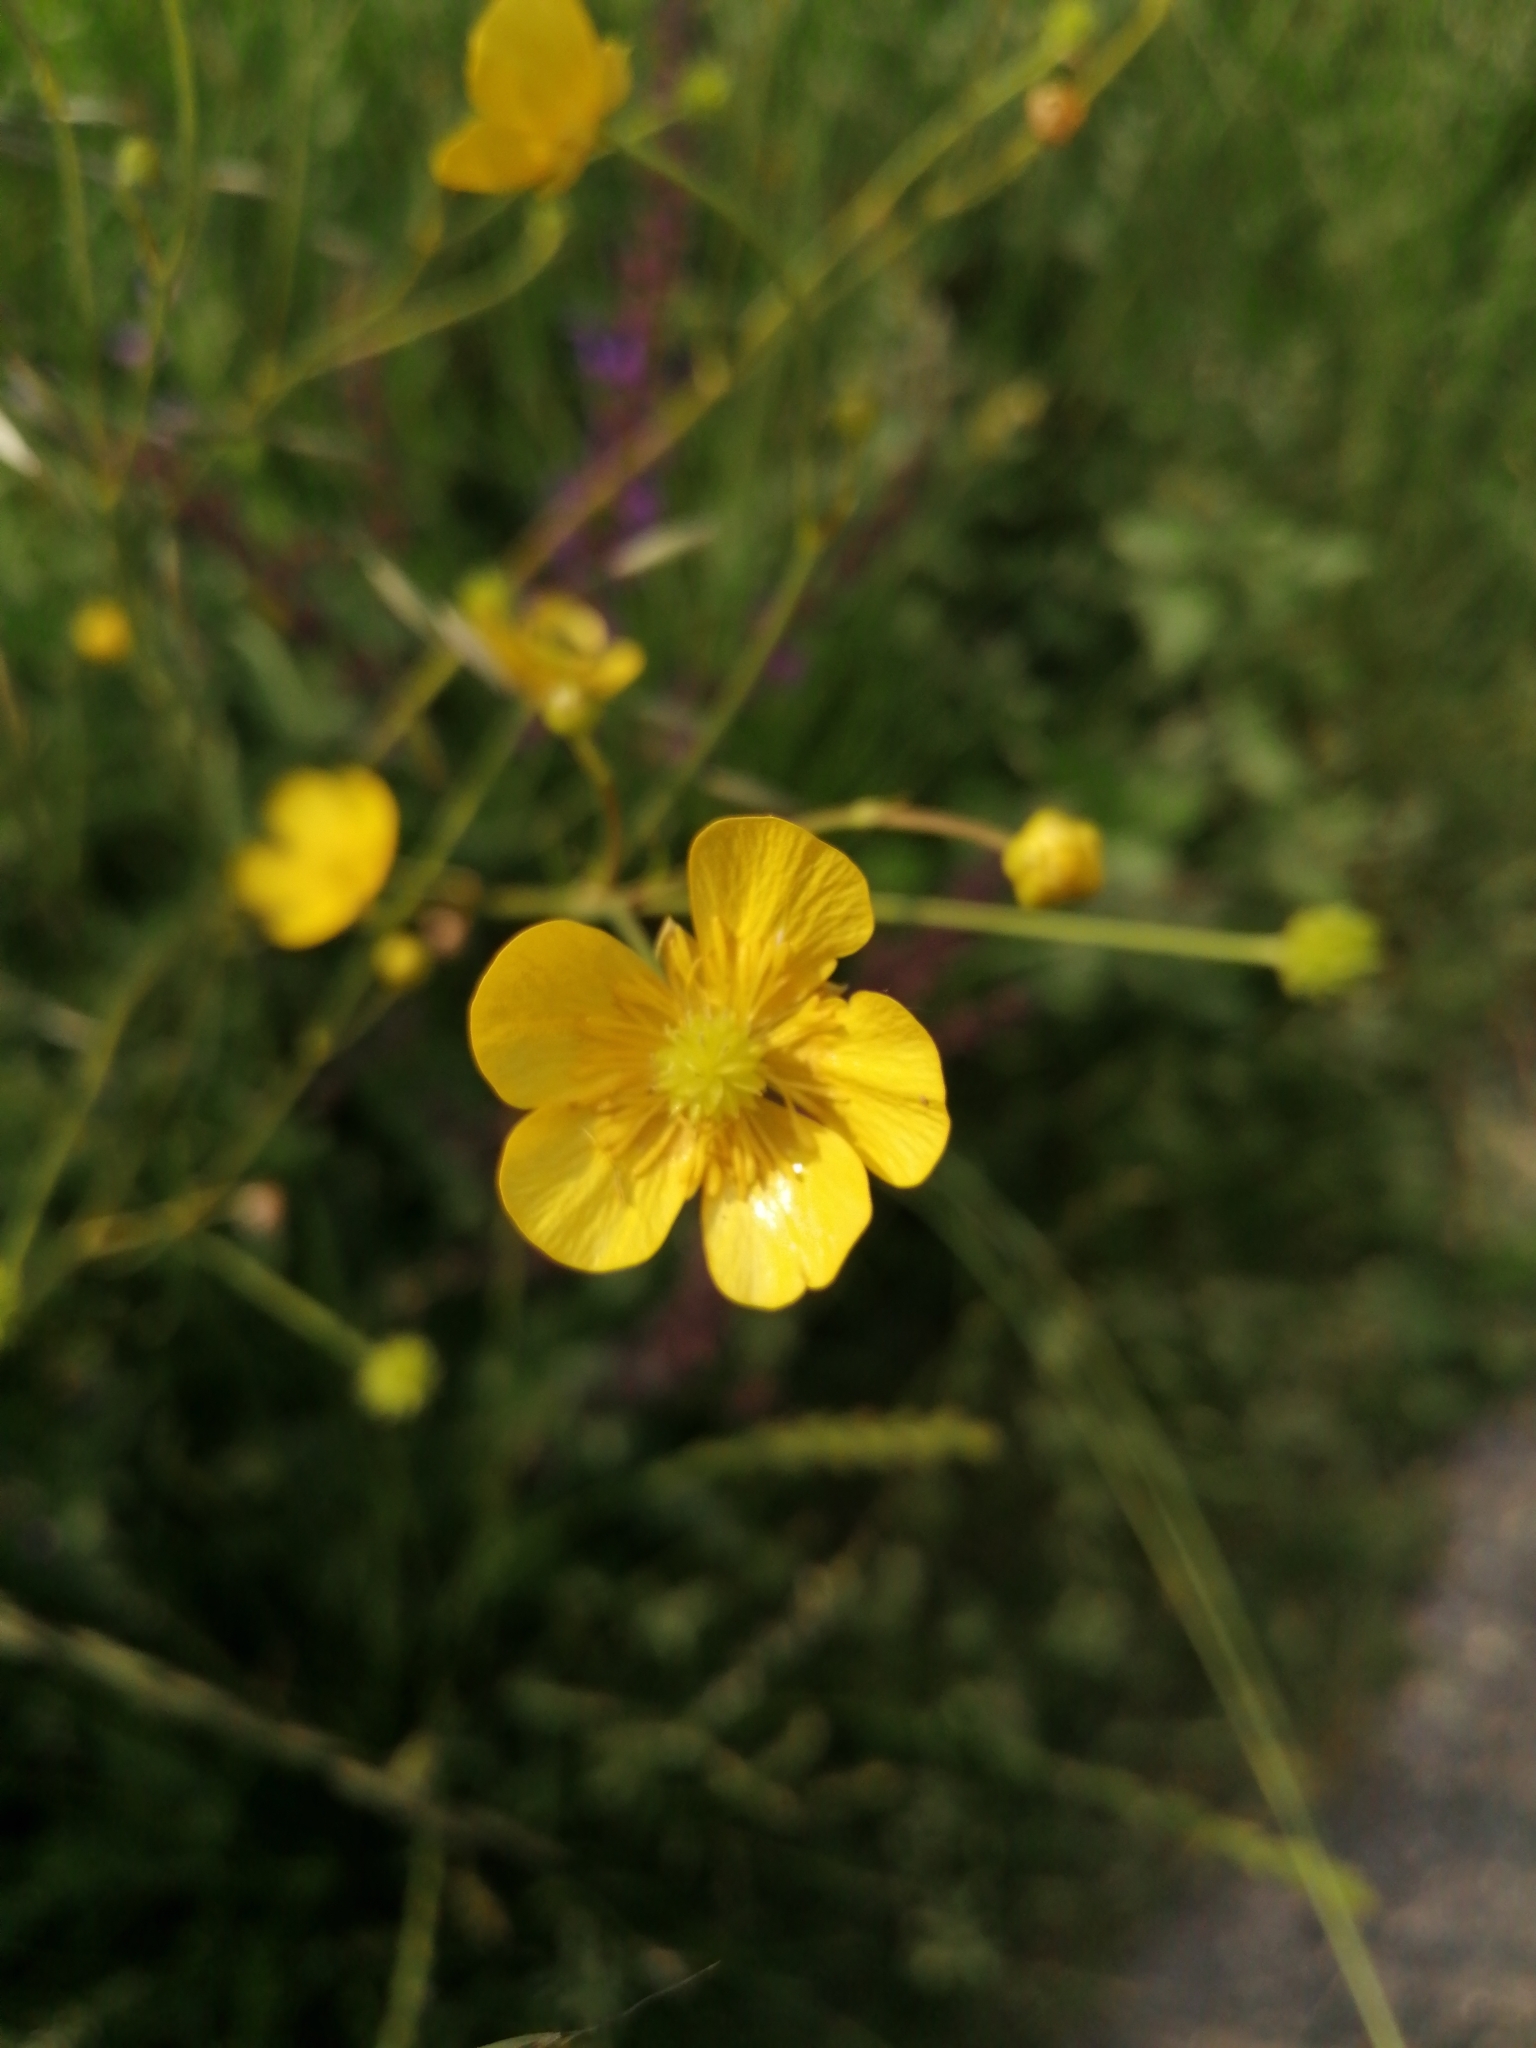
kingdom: Plantae
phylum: Tracheophyta
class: Magnoliopsida
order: Ranunculales
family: Ranunculaceae
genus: Ranunculus
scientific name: Ranunculus acris
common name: Meadow buttercup
